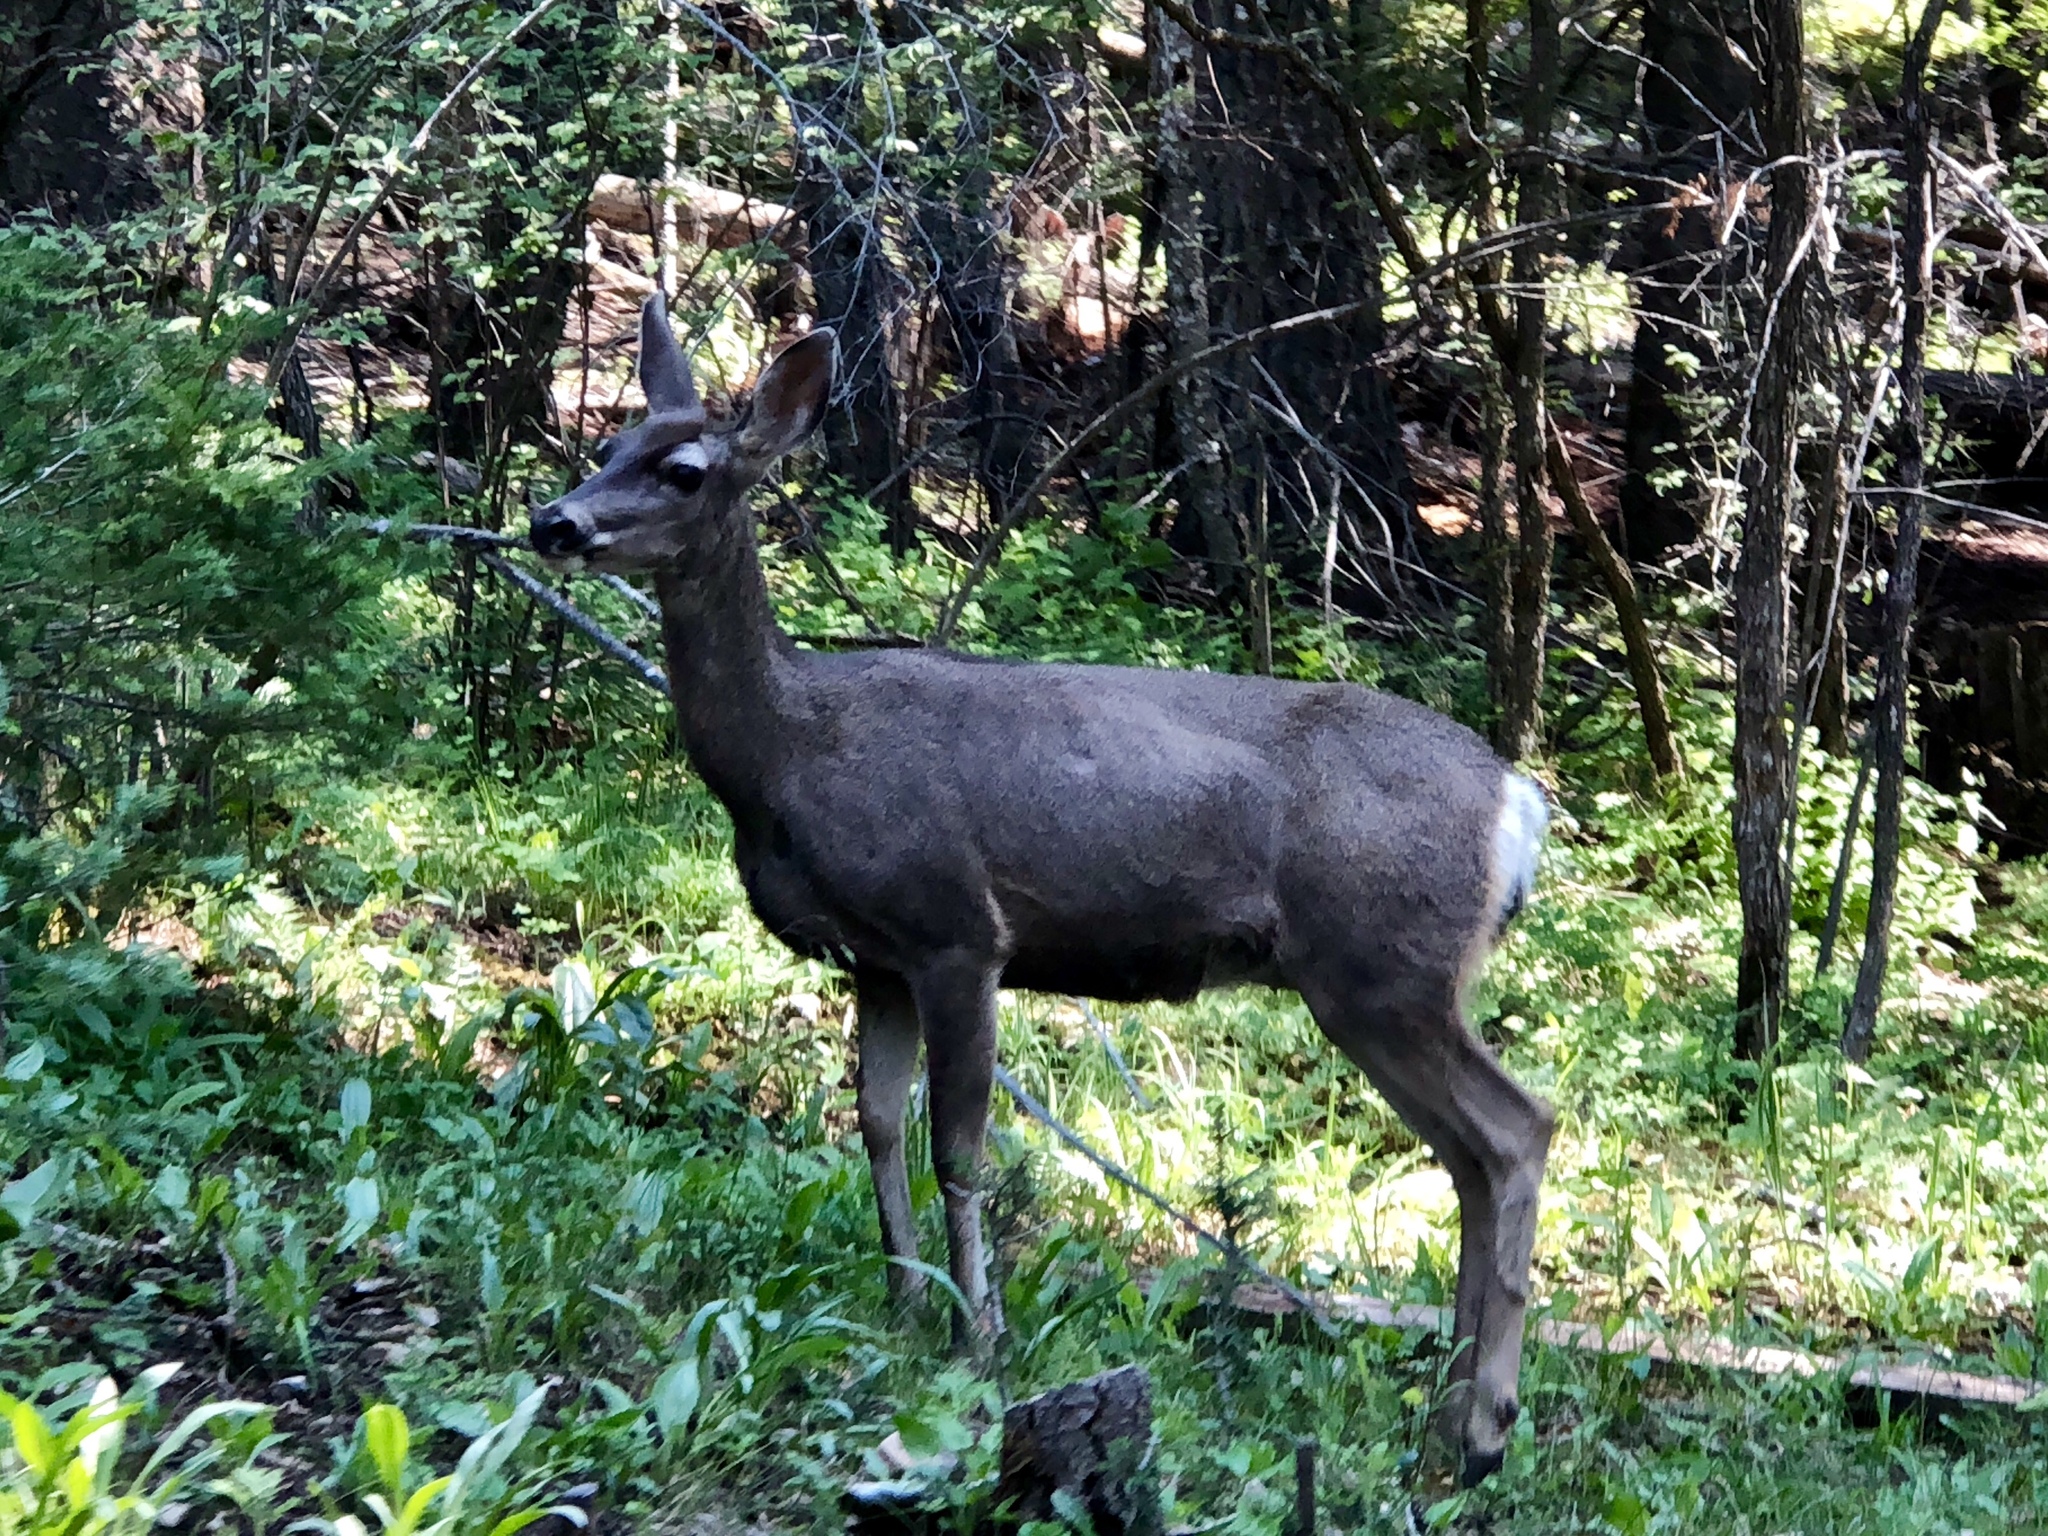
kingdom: Animalia
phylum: Chordata
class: Mammalia
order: Artiodactyla
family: Cervidae
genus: Odocoileus
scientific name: Odocoileus hemionus
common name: Mule deer
